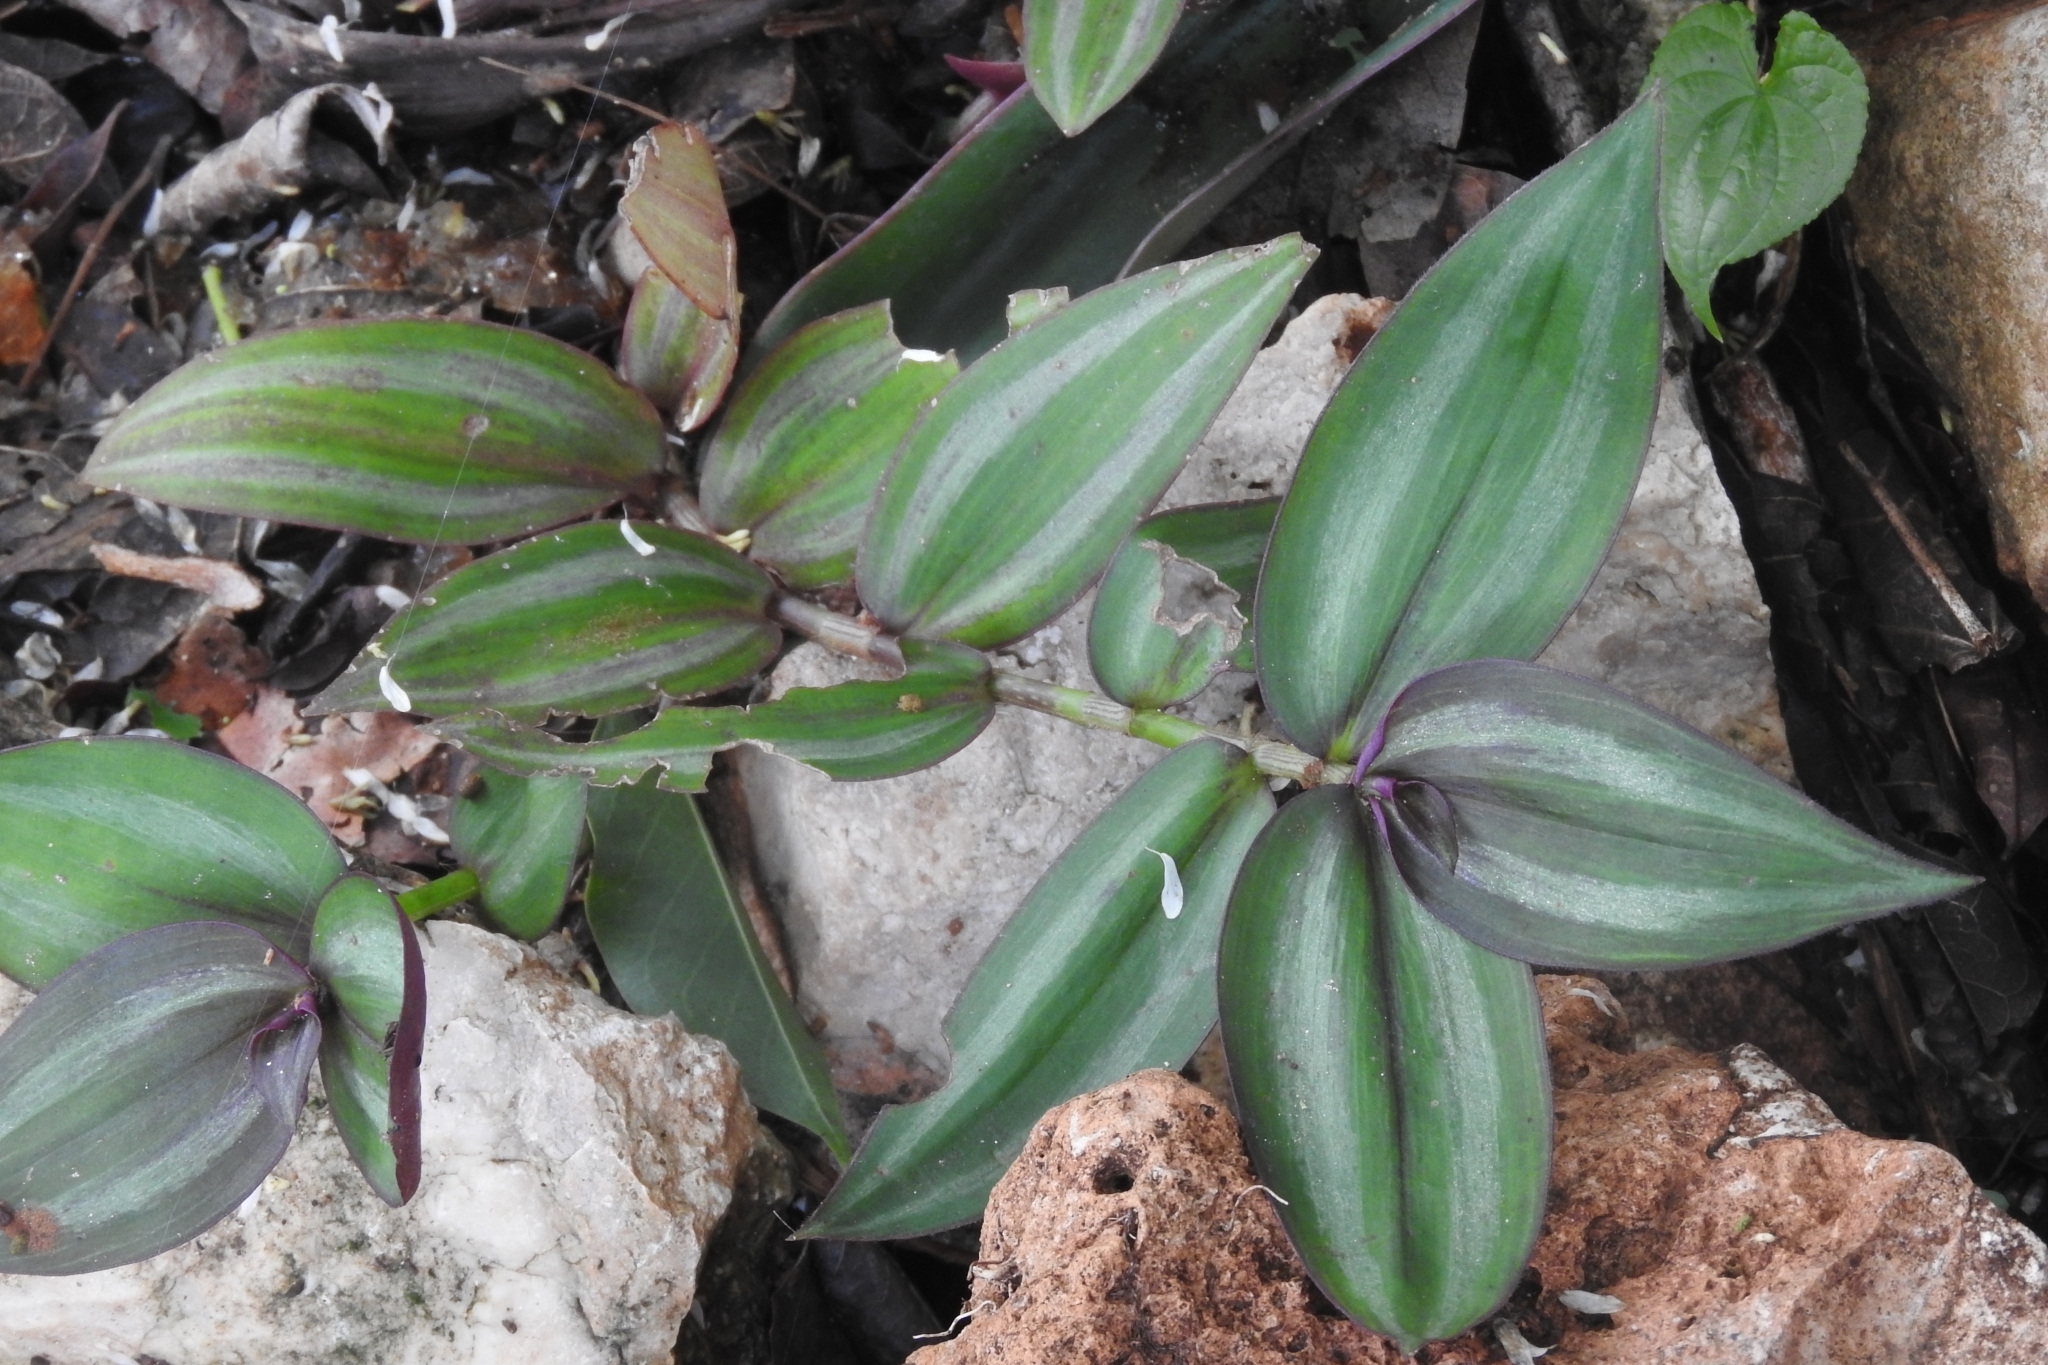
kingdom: Plantae
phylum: Tracheophyta
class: Liliopsida
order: Commelinales
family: Commelinaceae
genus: Tradescantia
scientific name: Tradescantia zebrina
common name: Inchplant
